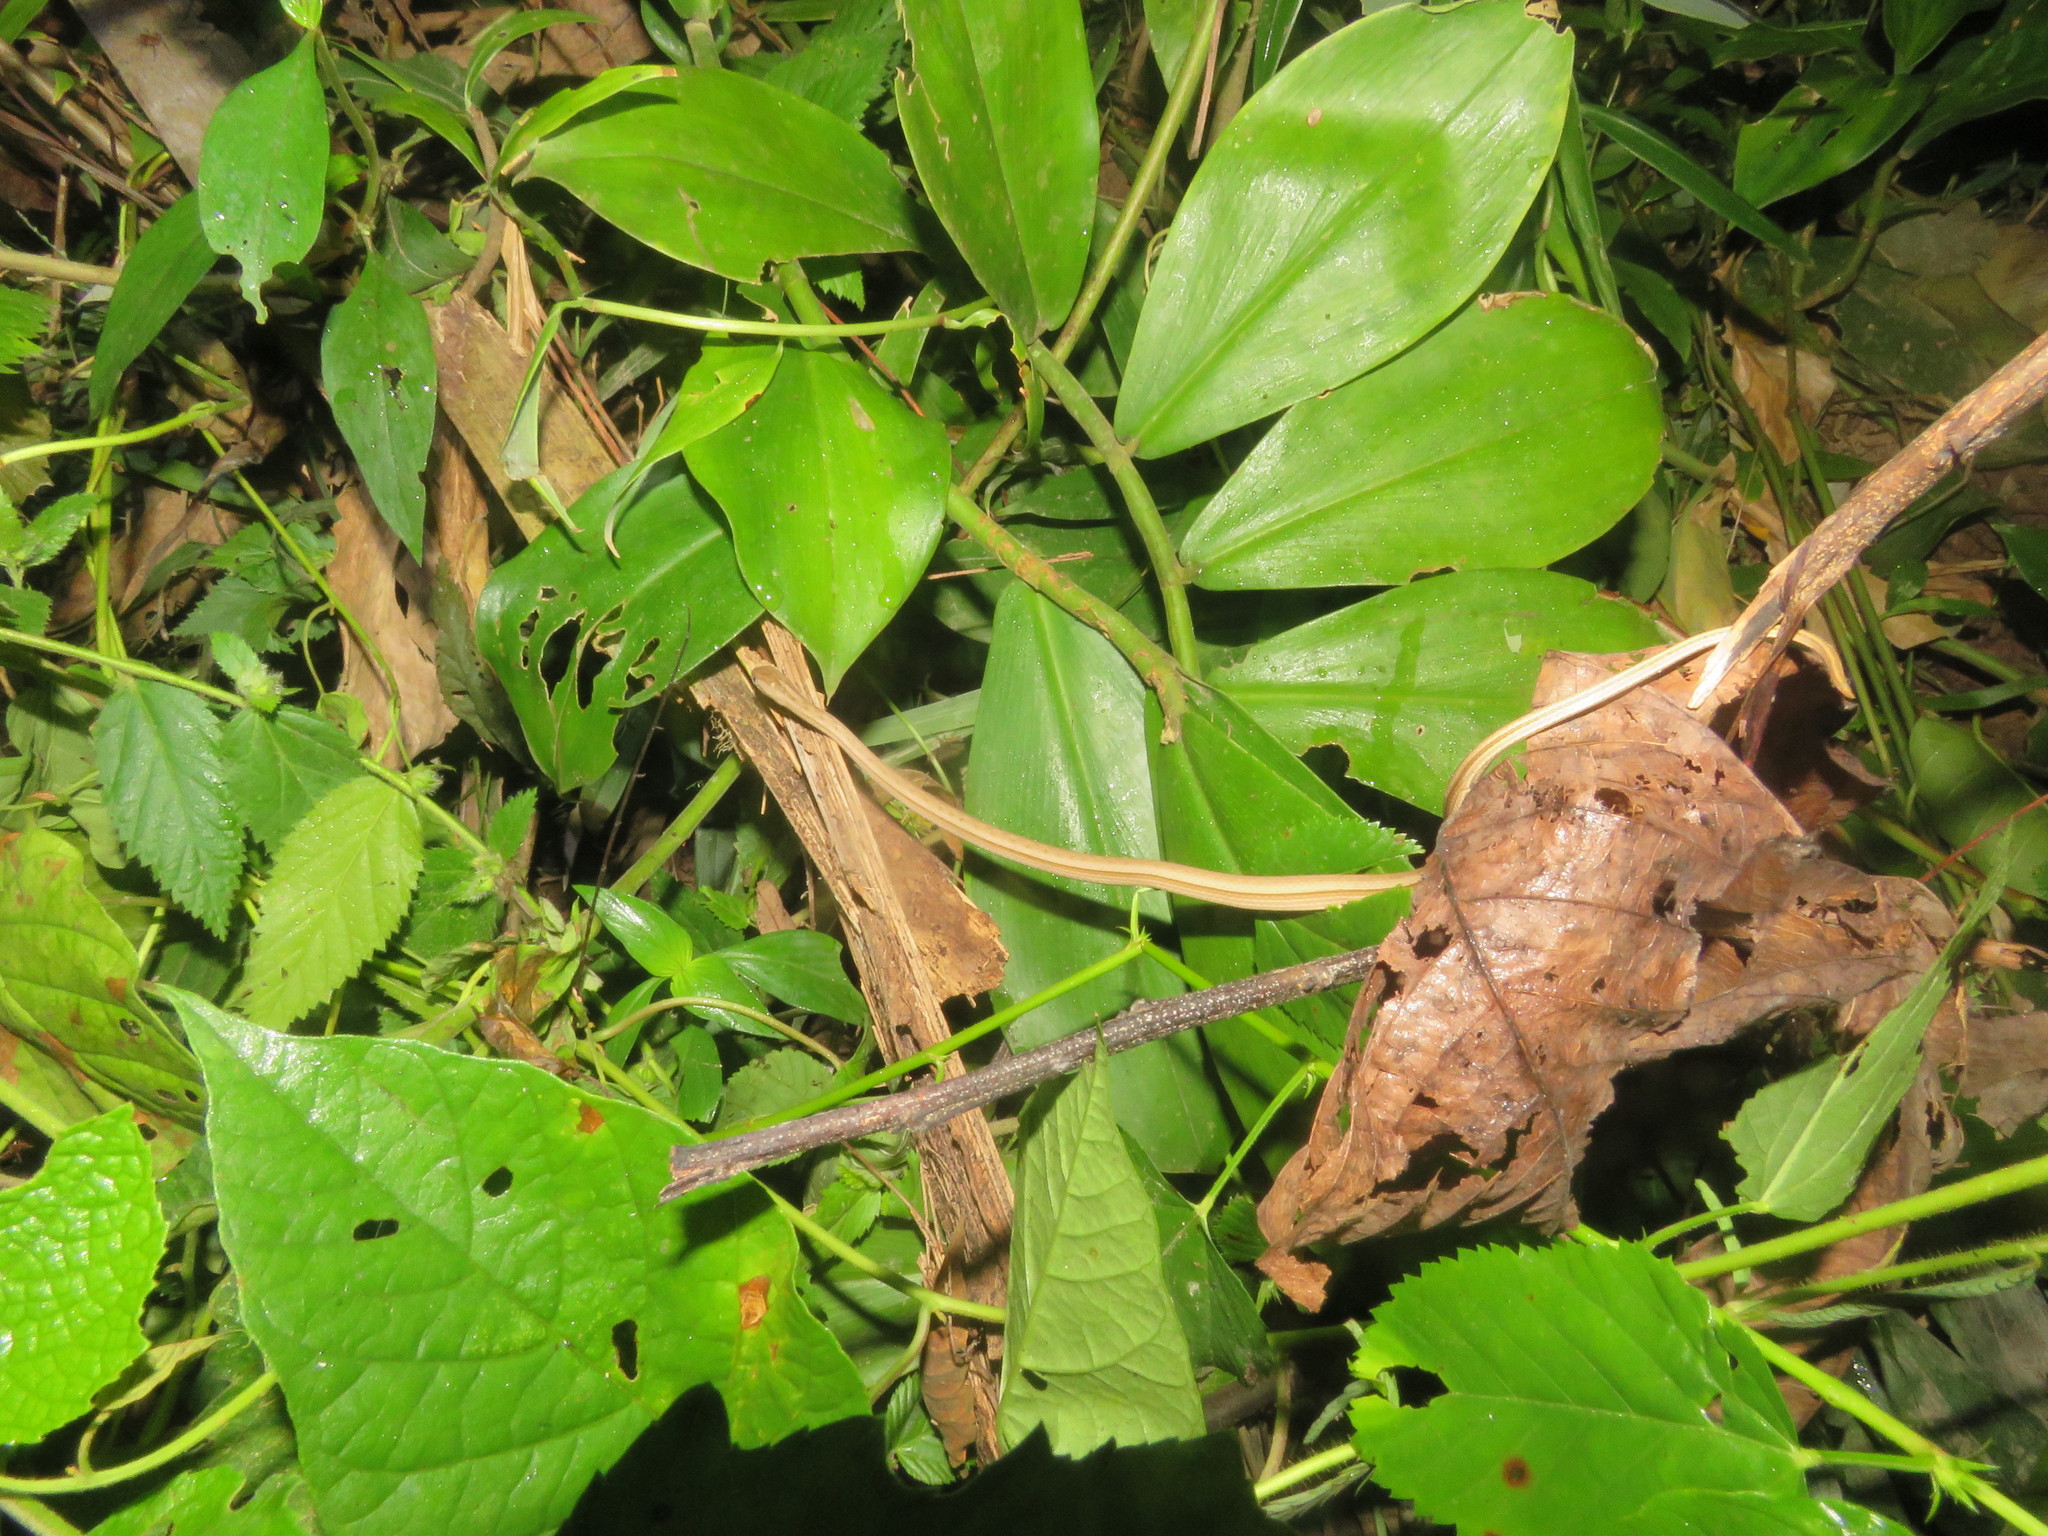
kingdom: Animalia
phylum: Chordata
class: Squamata
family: Colubridae
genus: Thamnodynastes
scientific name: Thamnodynastes pallidus
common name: Amazon coastal house snake
